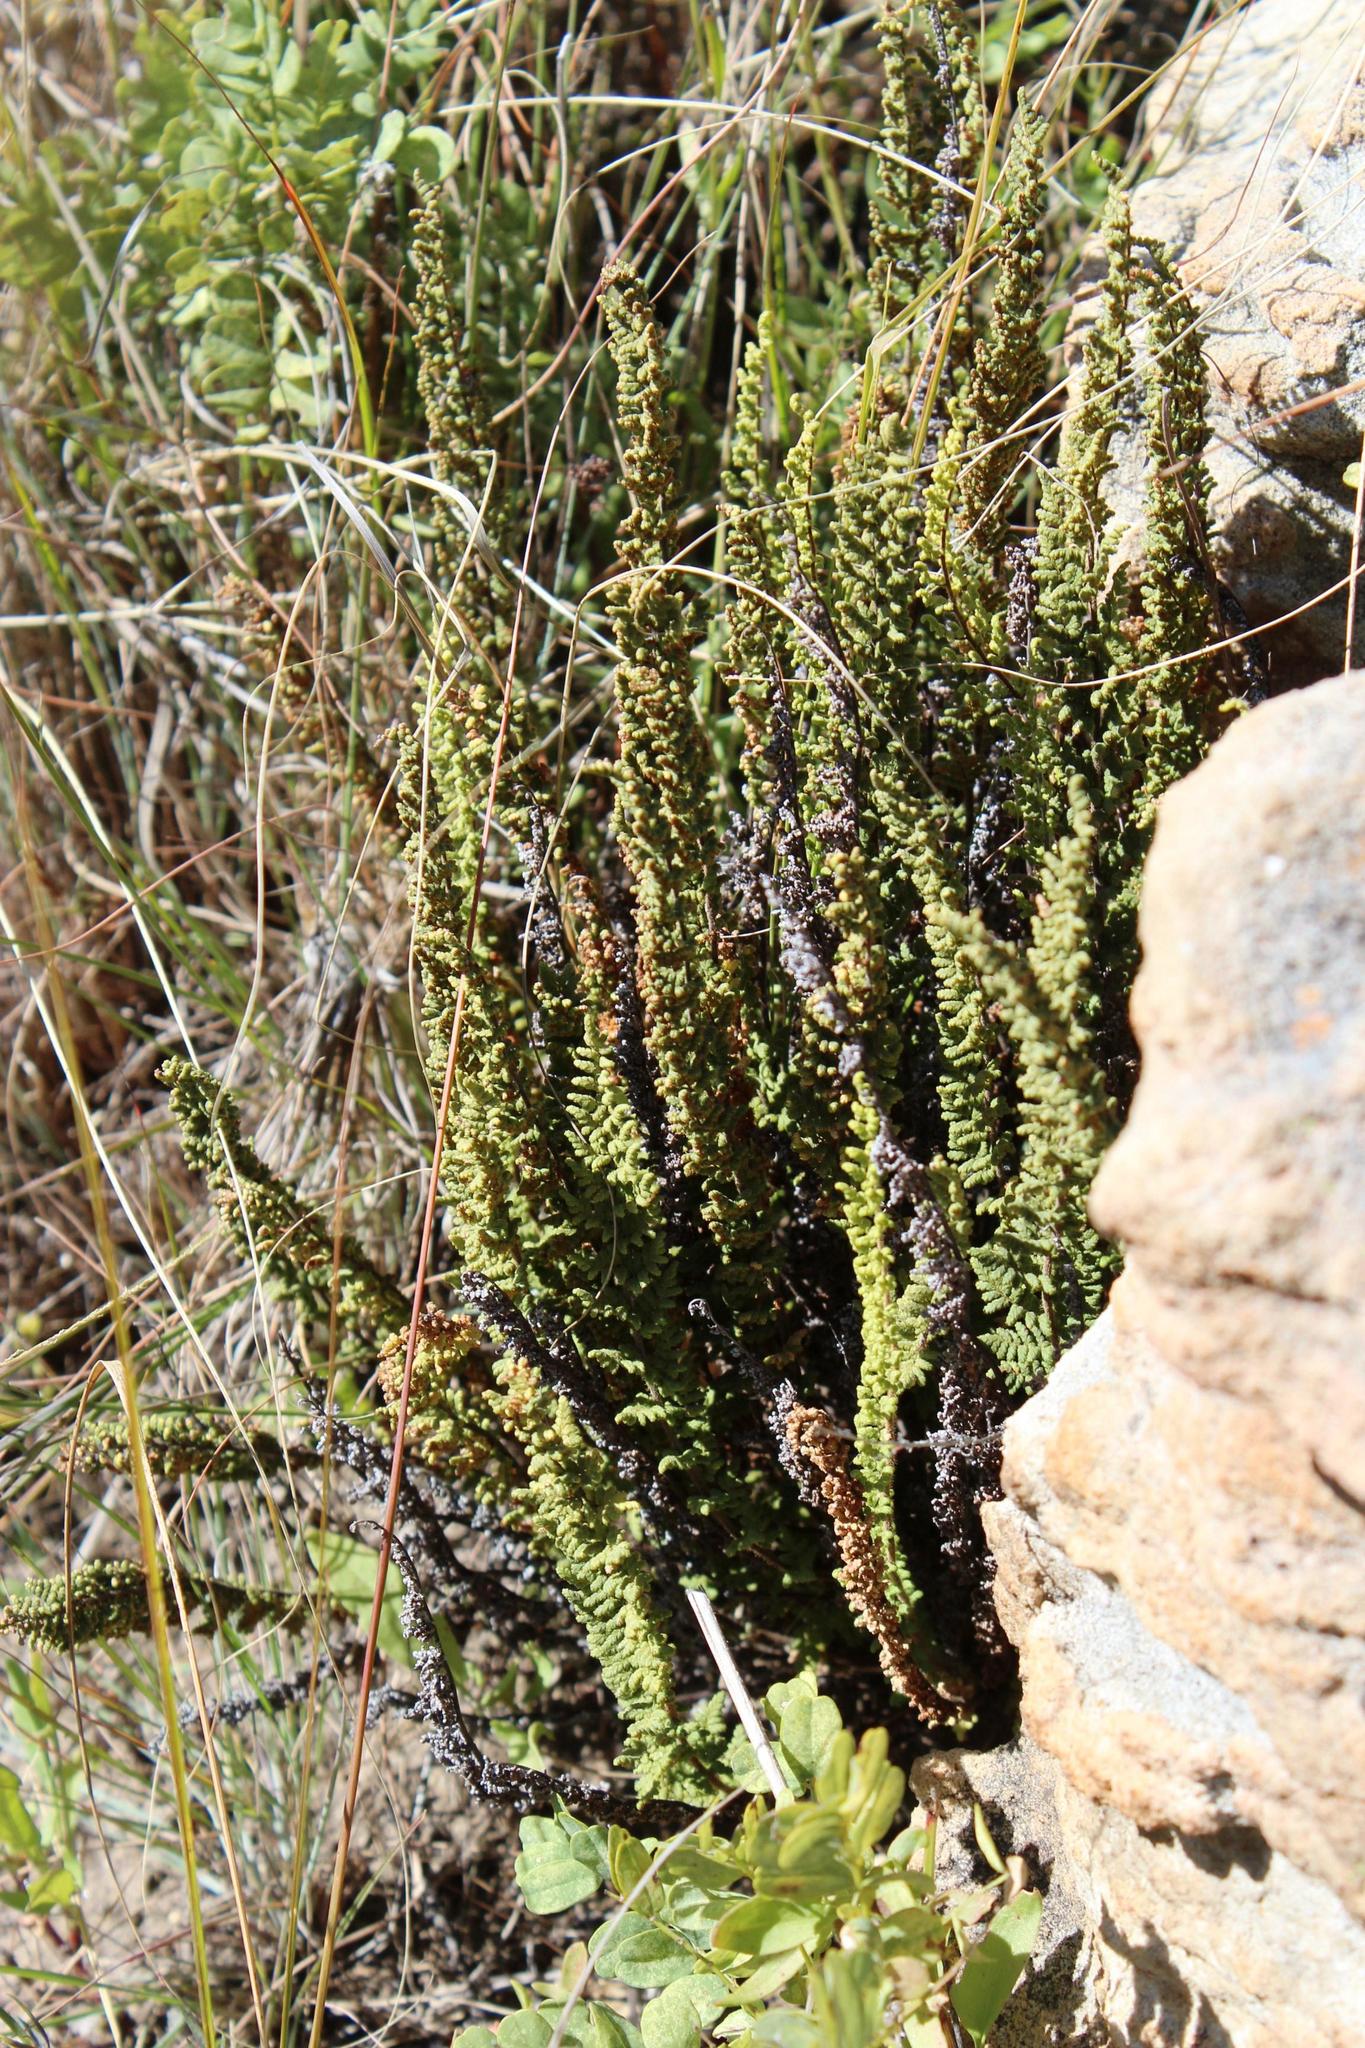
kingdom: Plantae
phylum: Tracheophyta
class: Polypodiopsida
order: Polypodiales
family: Pteridaceae
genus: Cheilanthes
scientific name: Cheilanthes hirta
